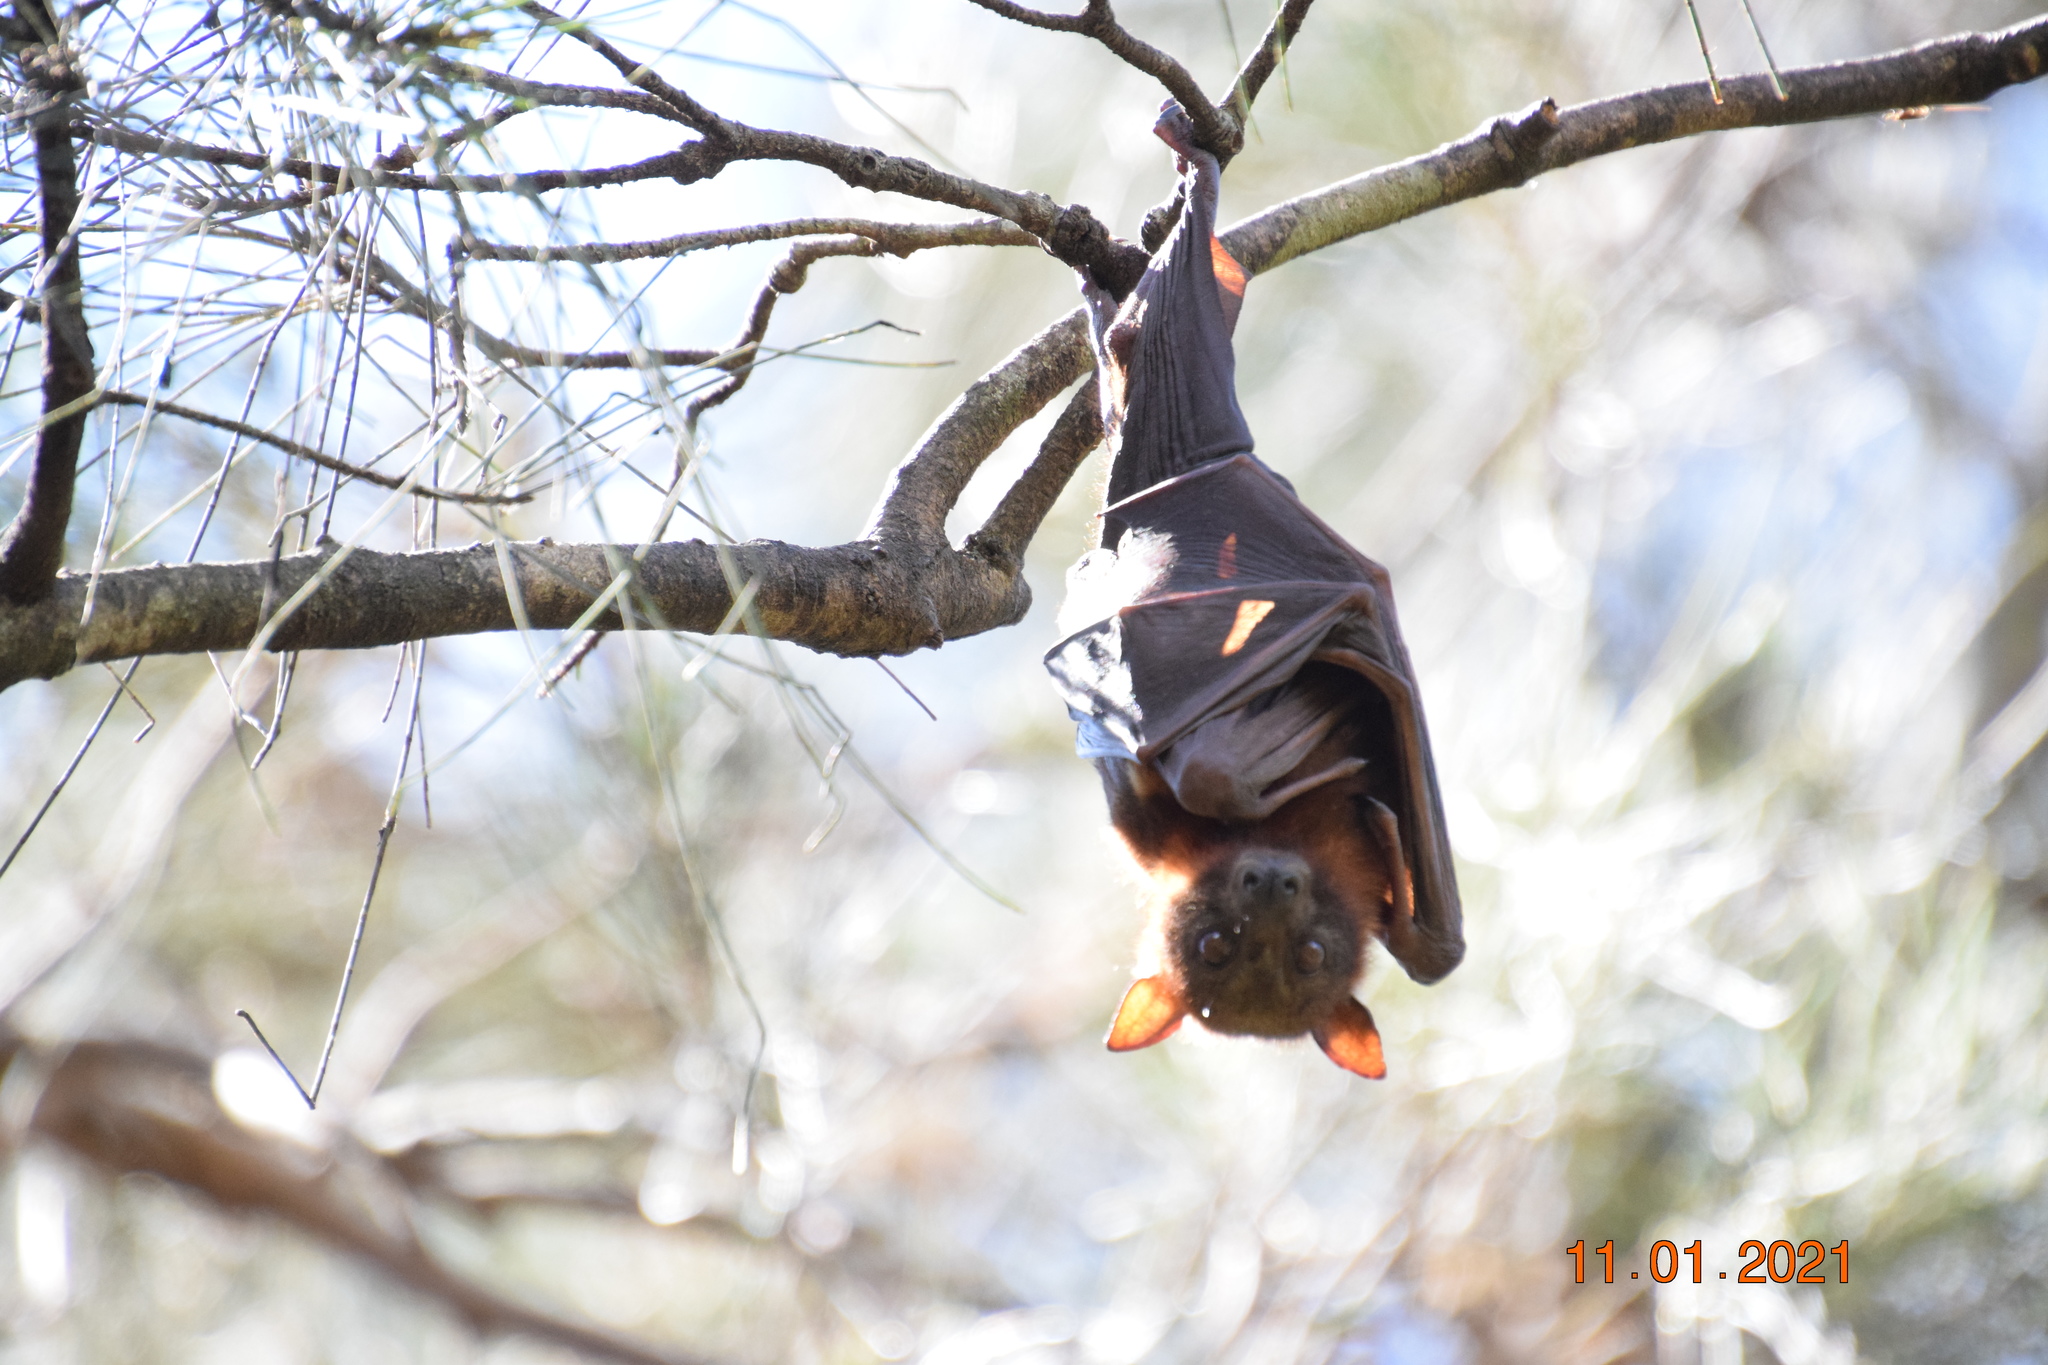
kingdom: Animalia
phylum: Chordata
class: Mammalia
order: Chiroptera
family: Pteropodidae
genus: Pteropus
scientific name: Pteropus scapulatus
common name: Little red flying fox
